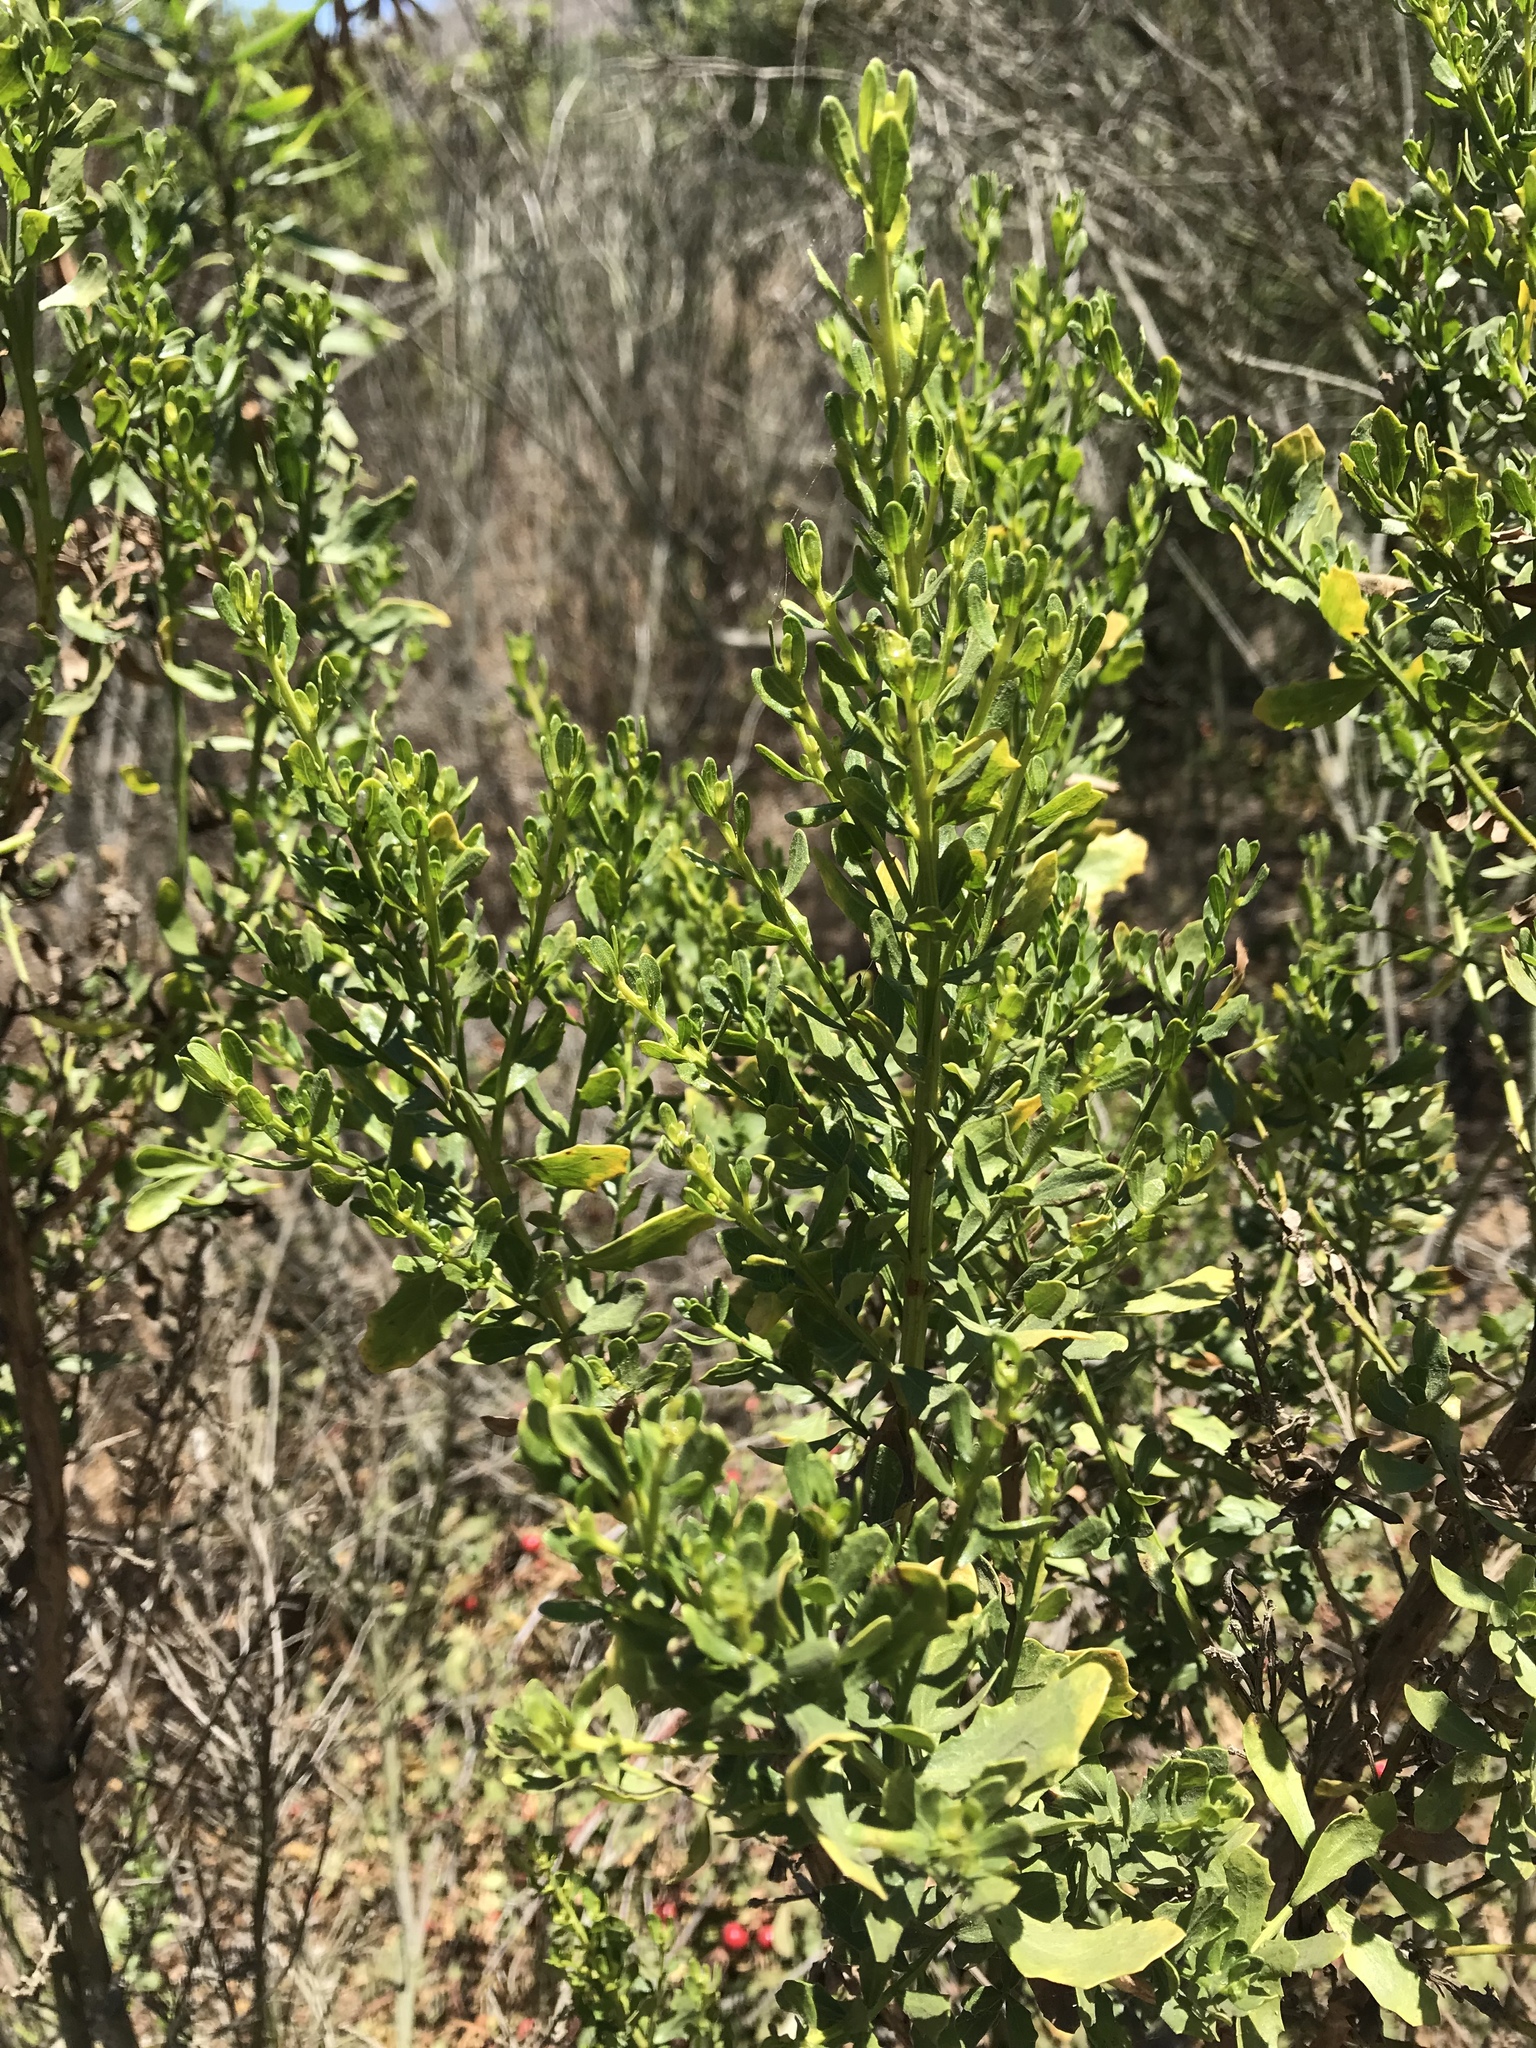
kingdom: Plantae
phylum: Tracheophyta
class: Magnoliopsida
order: Asterales
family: Asteraceae
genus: Baccharis
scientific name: Baccharis pilularis
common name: Coyotebrush
